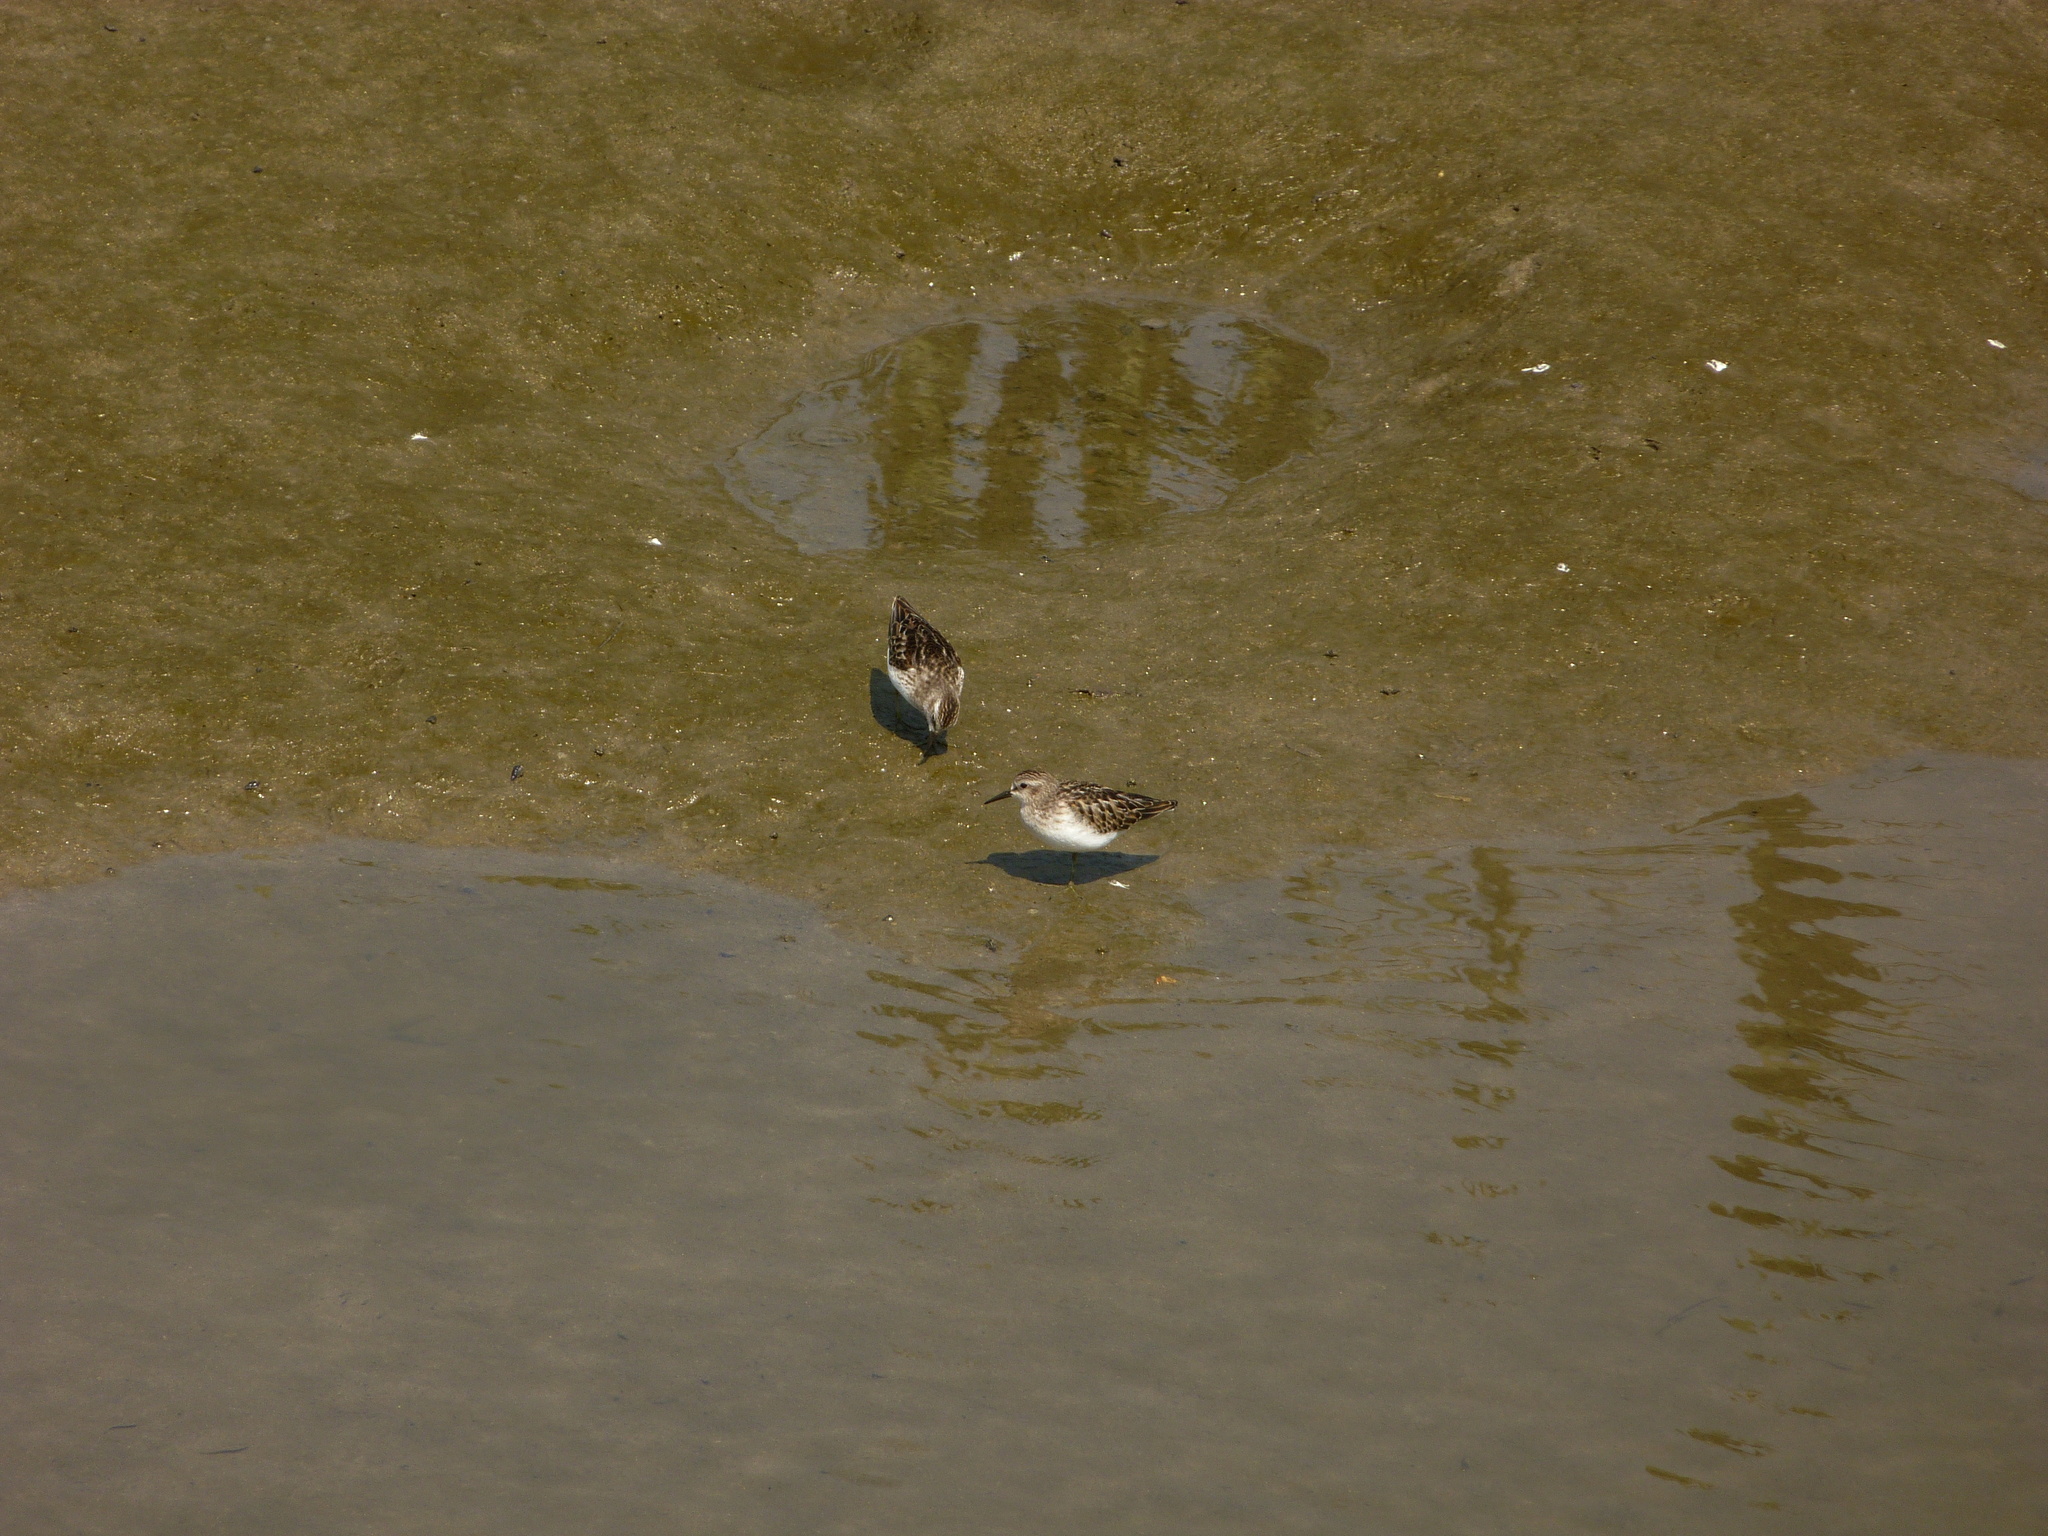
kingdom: Animalia
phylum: Chordata
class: Aves
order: Charadriiformes
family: Scolopacidae
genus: Calidris
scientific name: Calidris minutilla
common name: Least sandpiper
